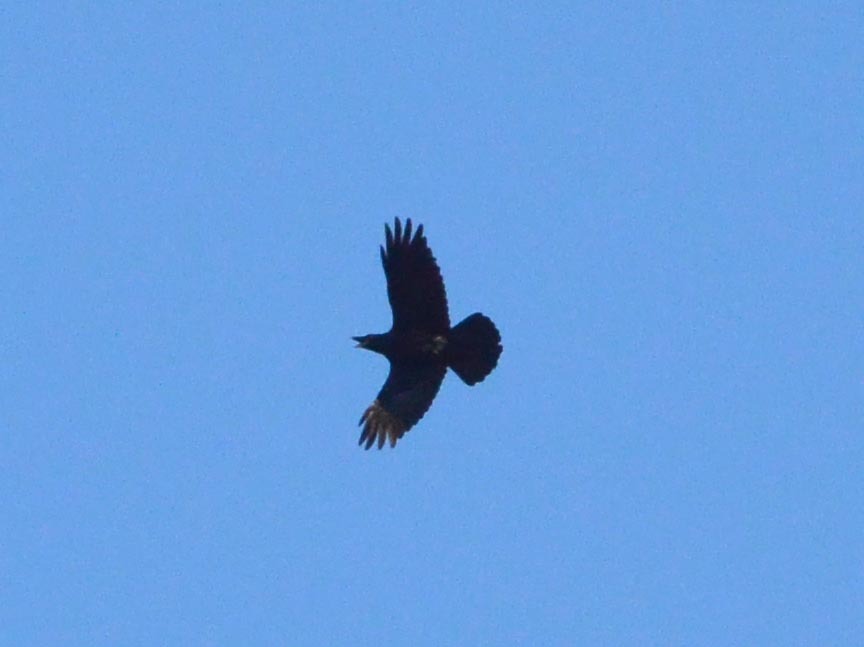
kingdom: Animalia
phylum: Chordata
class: Aves
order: Passeriformes
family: Corvidae
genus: Corvus
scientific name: Corvus corax
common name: Common raven
